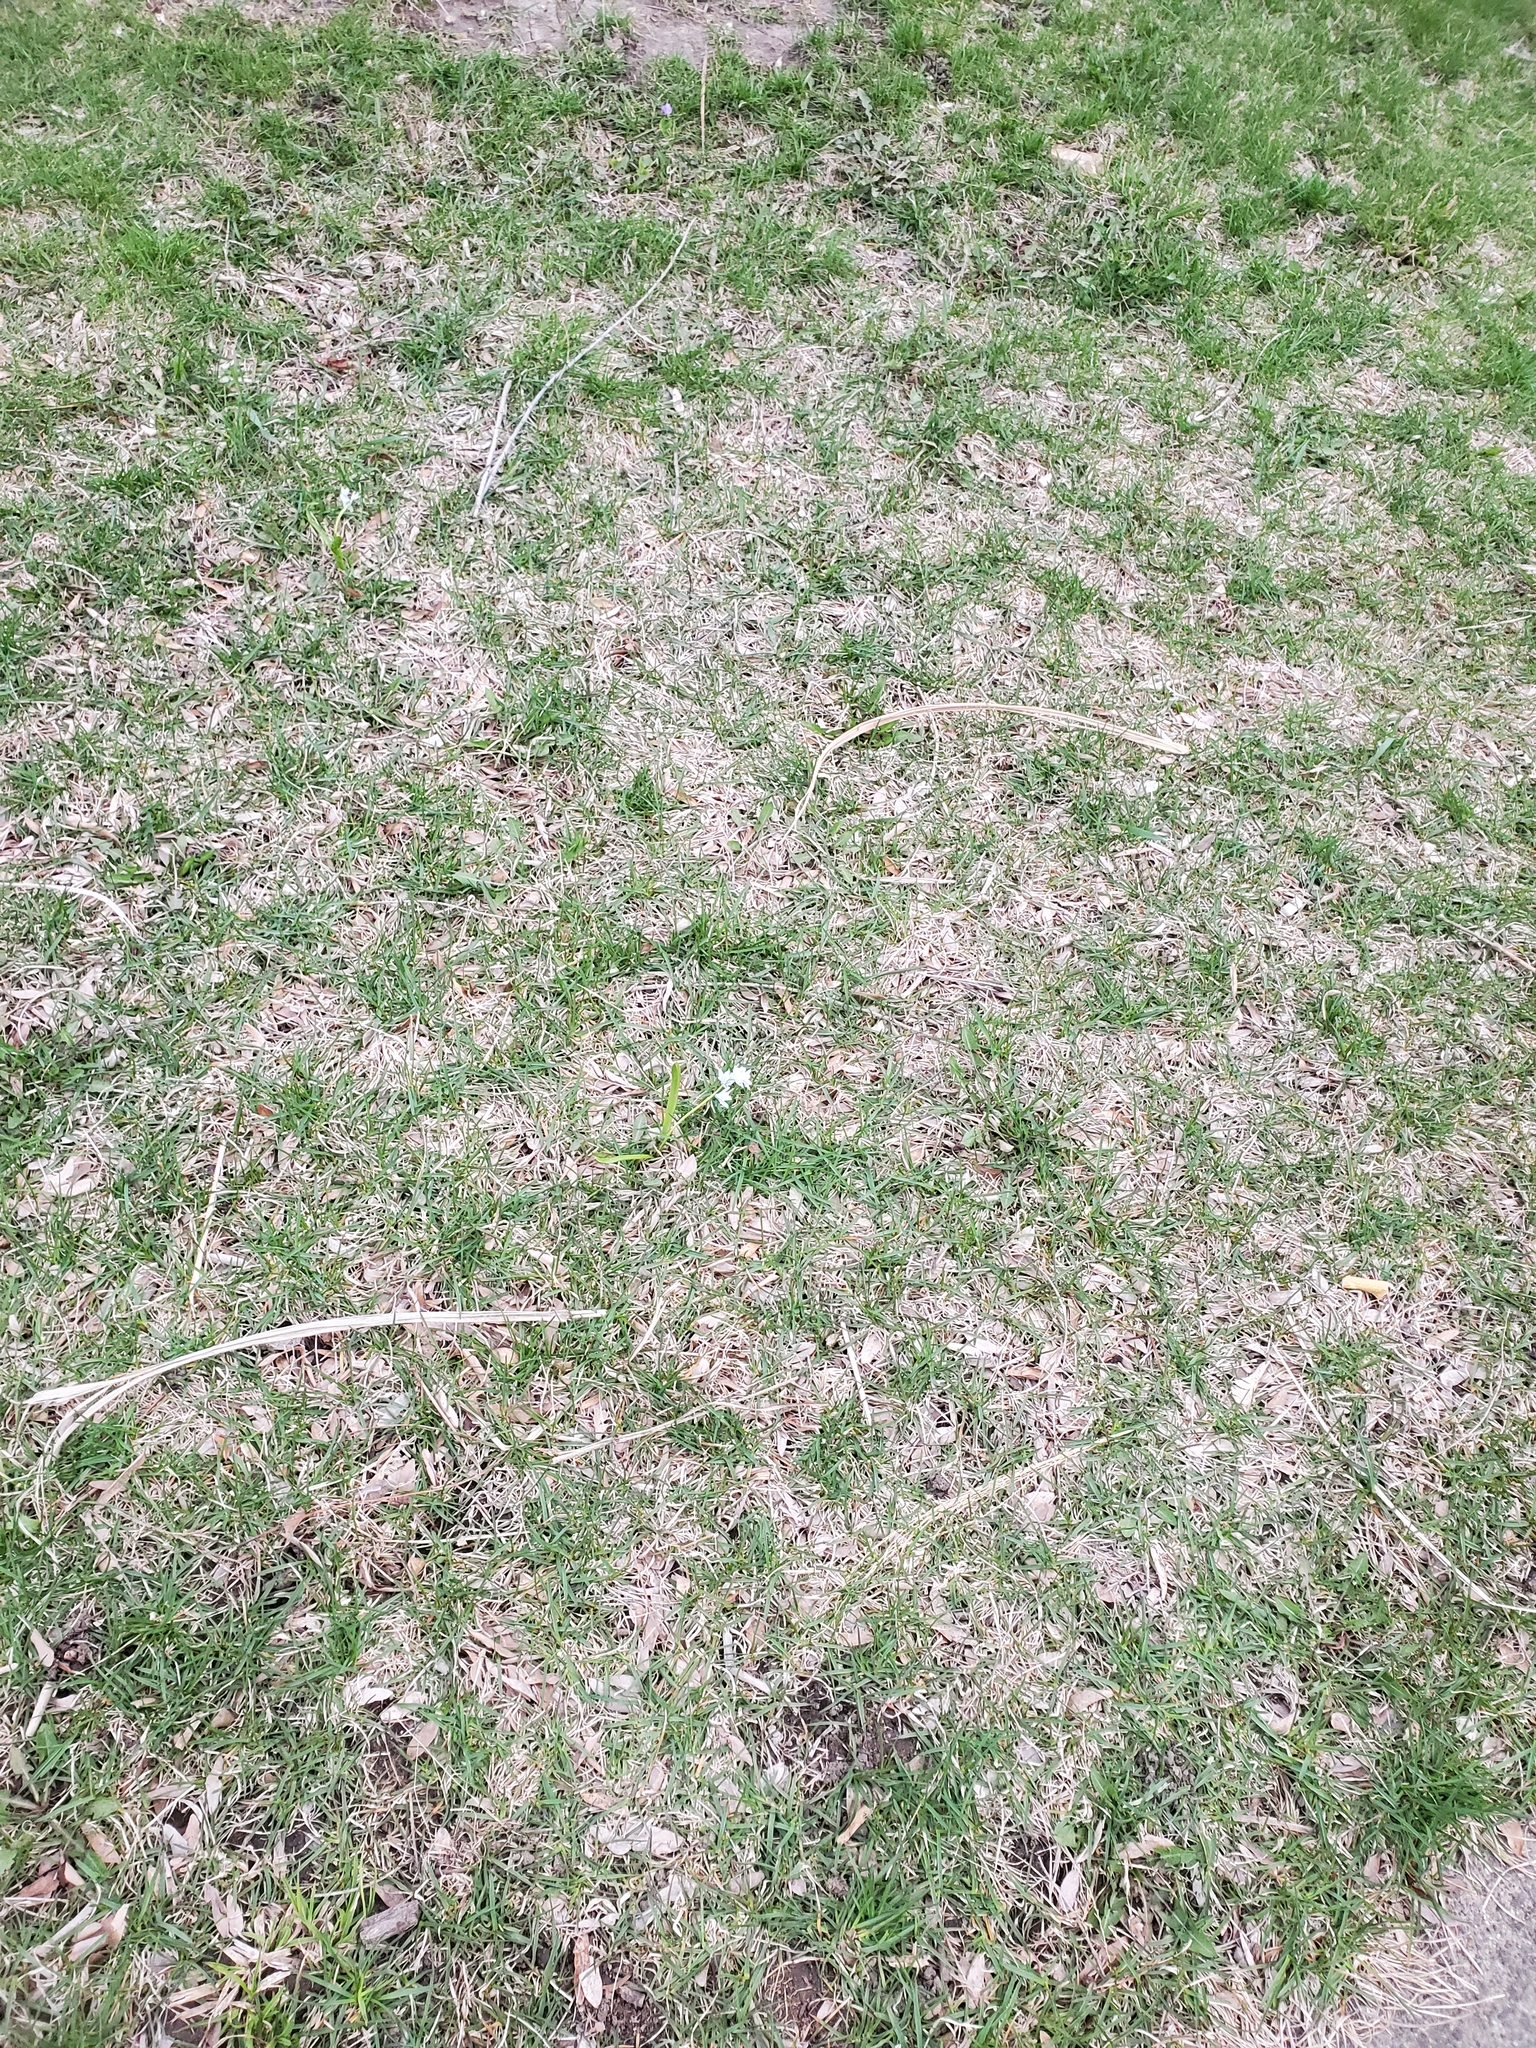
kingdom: Plantae
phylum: Tracheophyta
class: Liliopsida
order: Asparagales
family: Asparagaceae
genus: Puschkinia
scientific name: Puschkinia scilloides
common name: Striped squill
